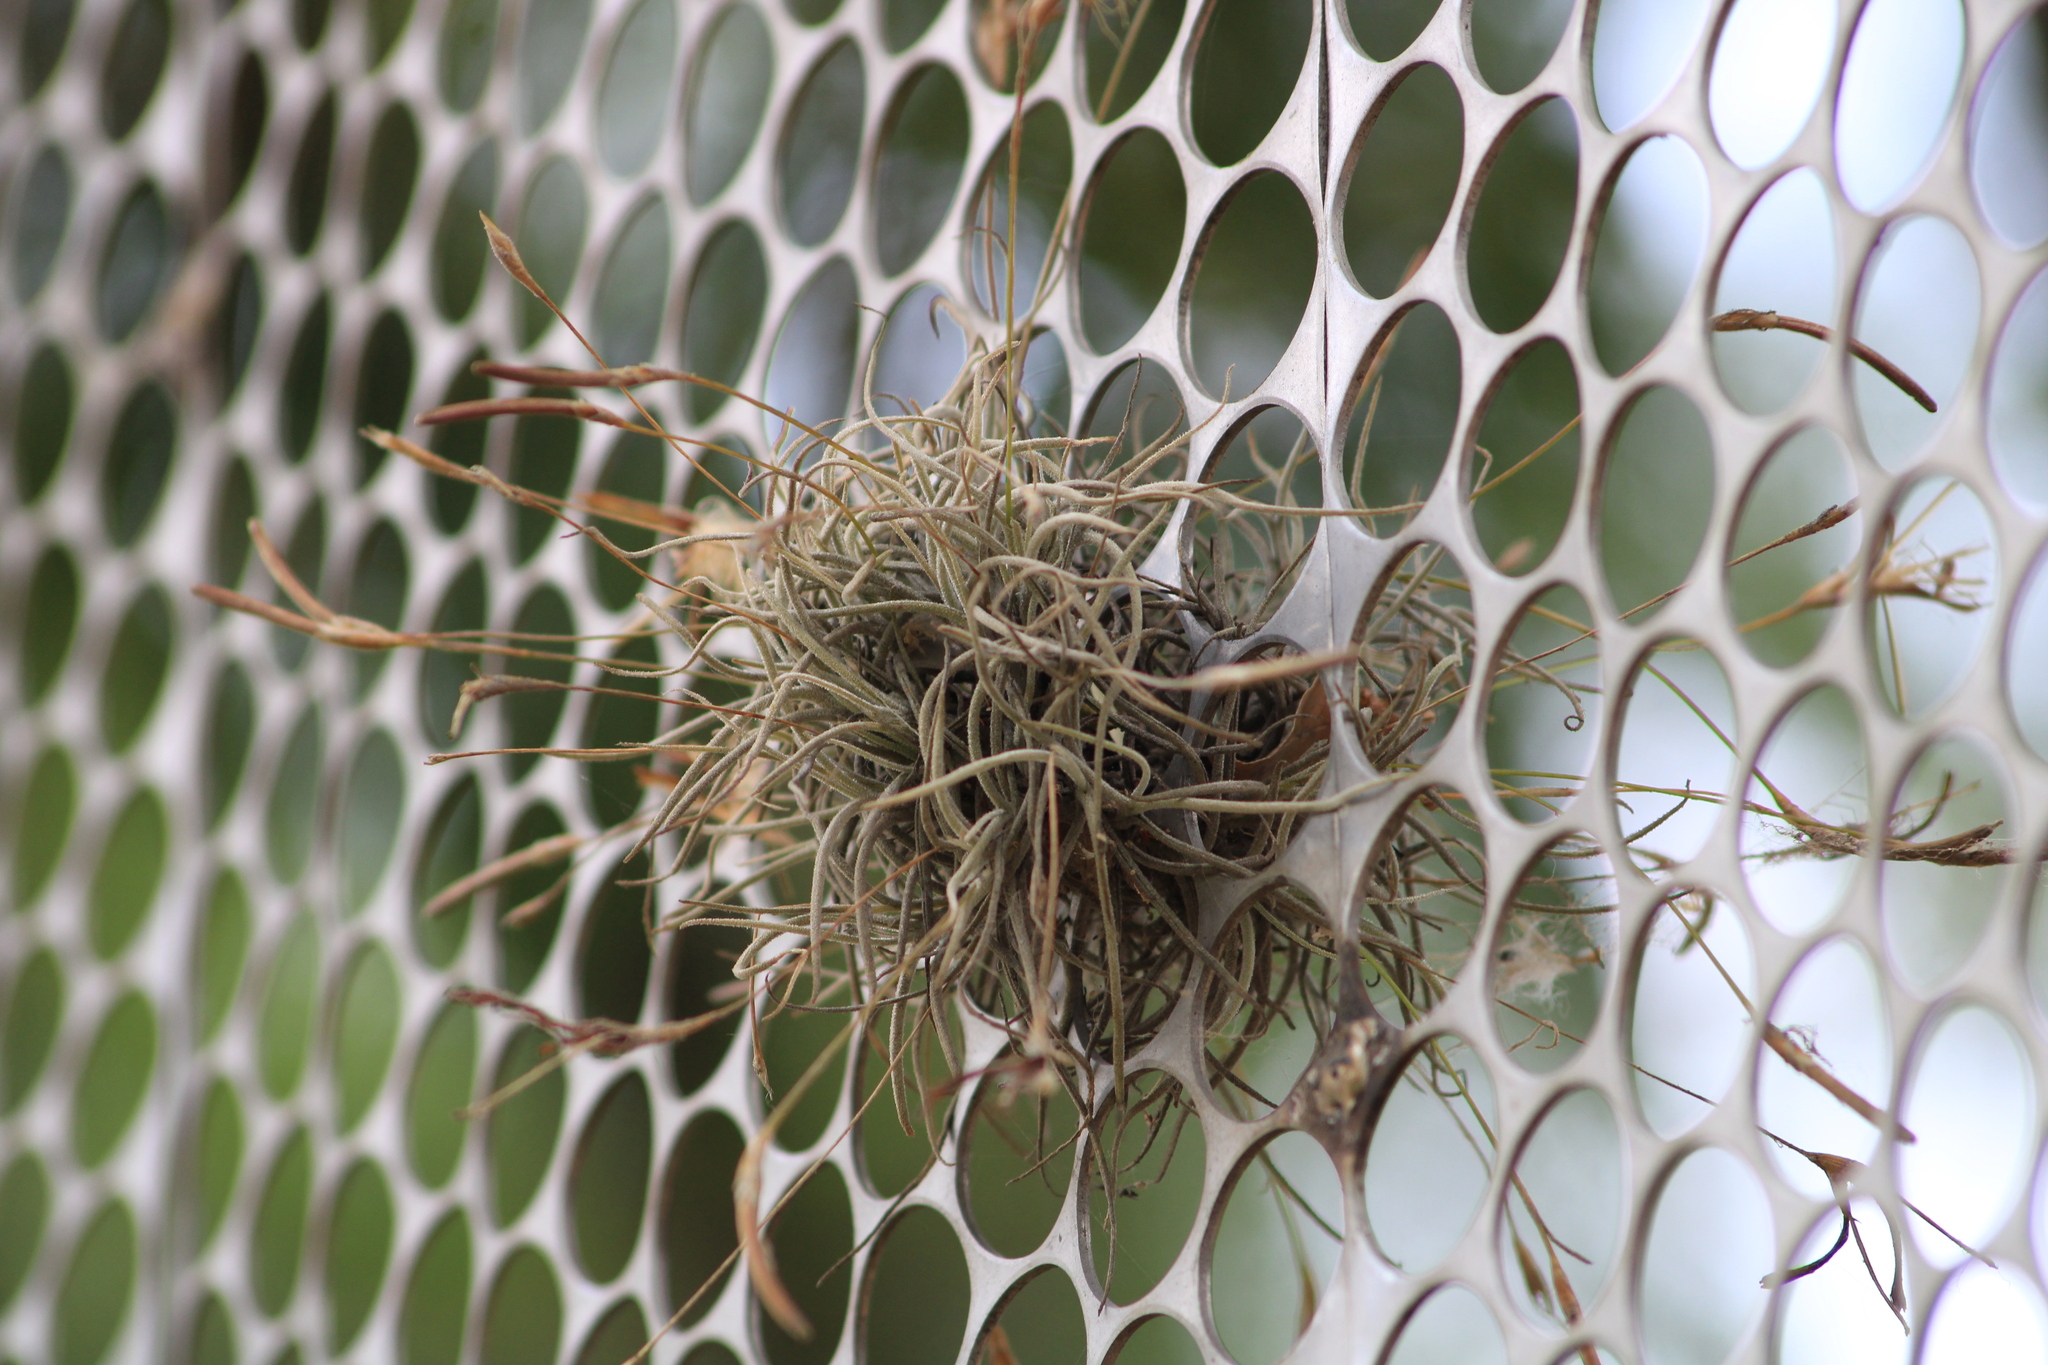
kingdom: Plantae
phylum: Tracheophyta
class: Liliopsida
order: Poales
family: Bromeliaceae
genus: Tillandsia
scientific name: Tillandsia recurvata
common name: Small ballmoss
